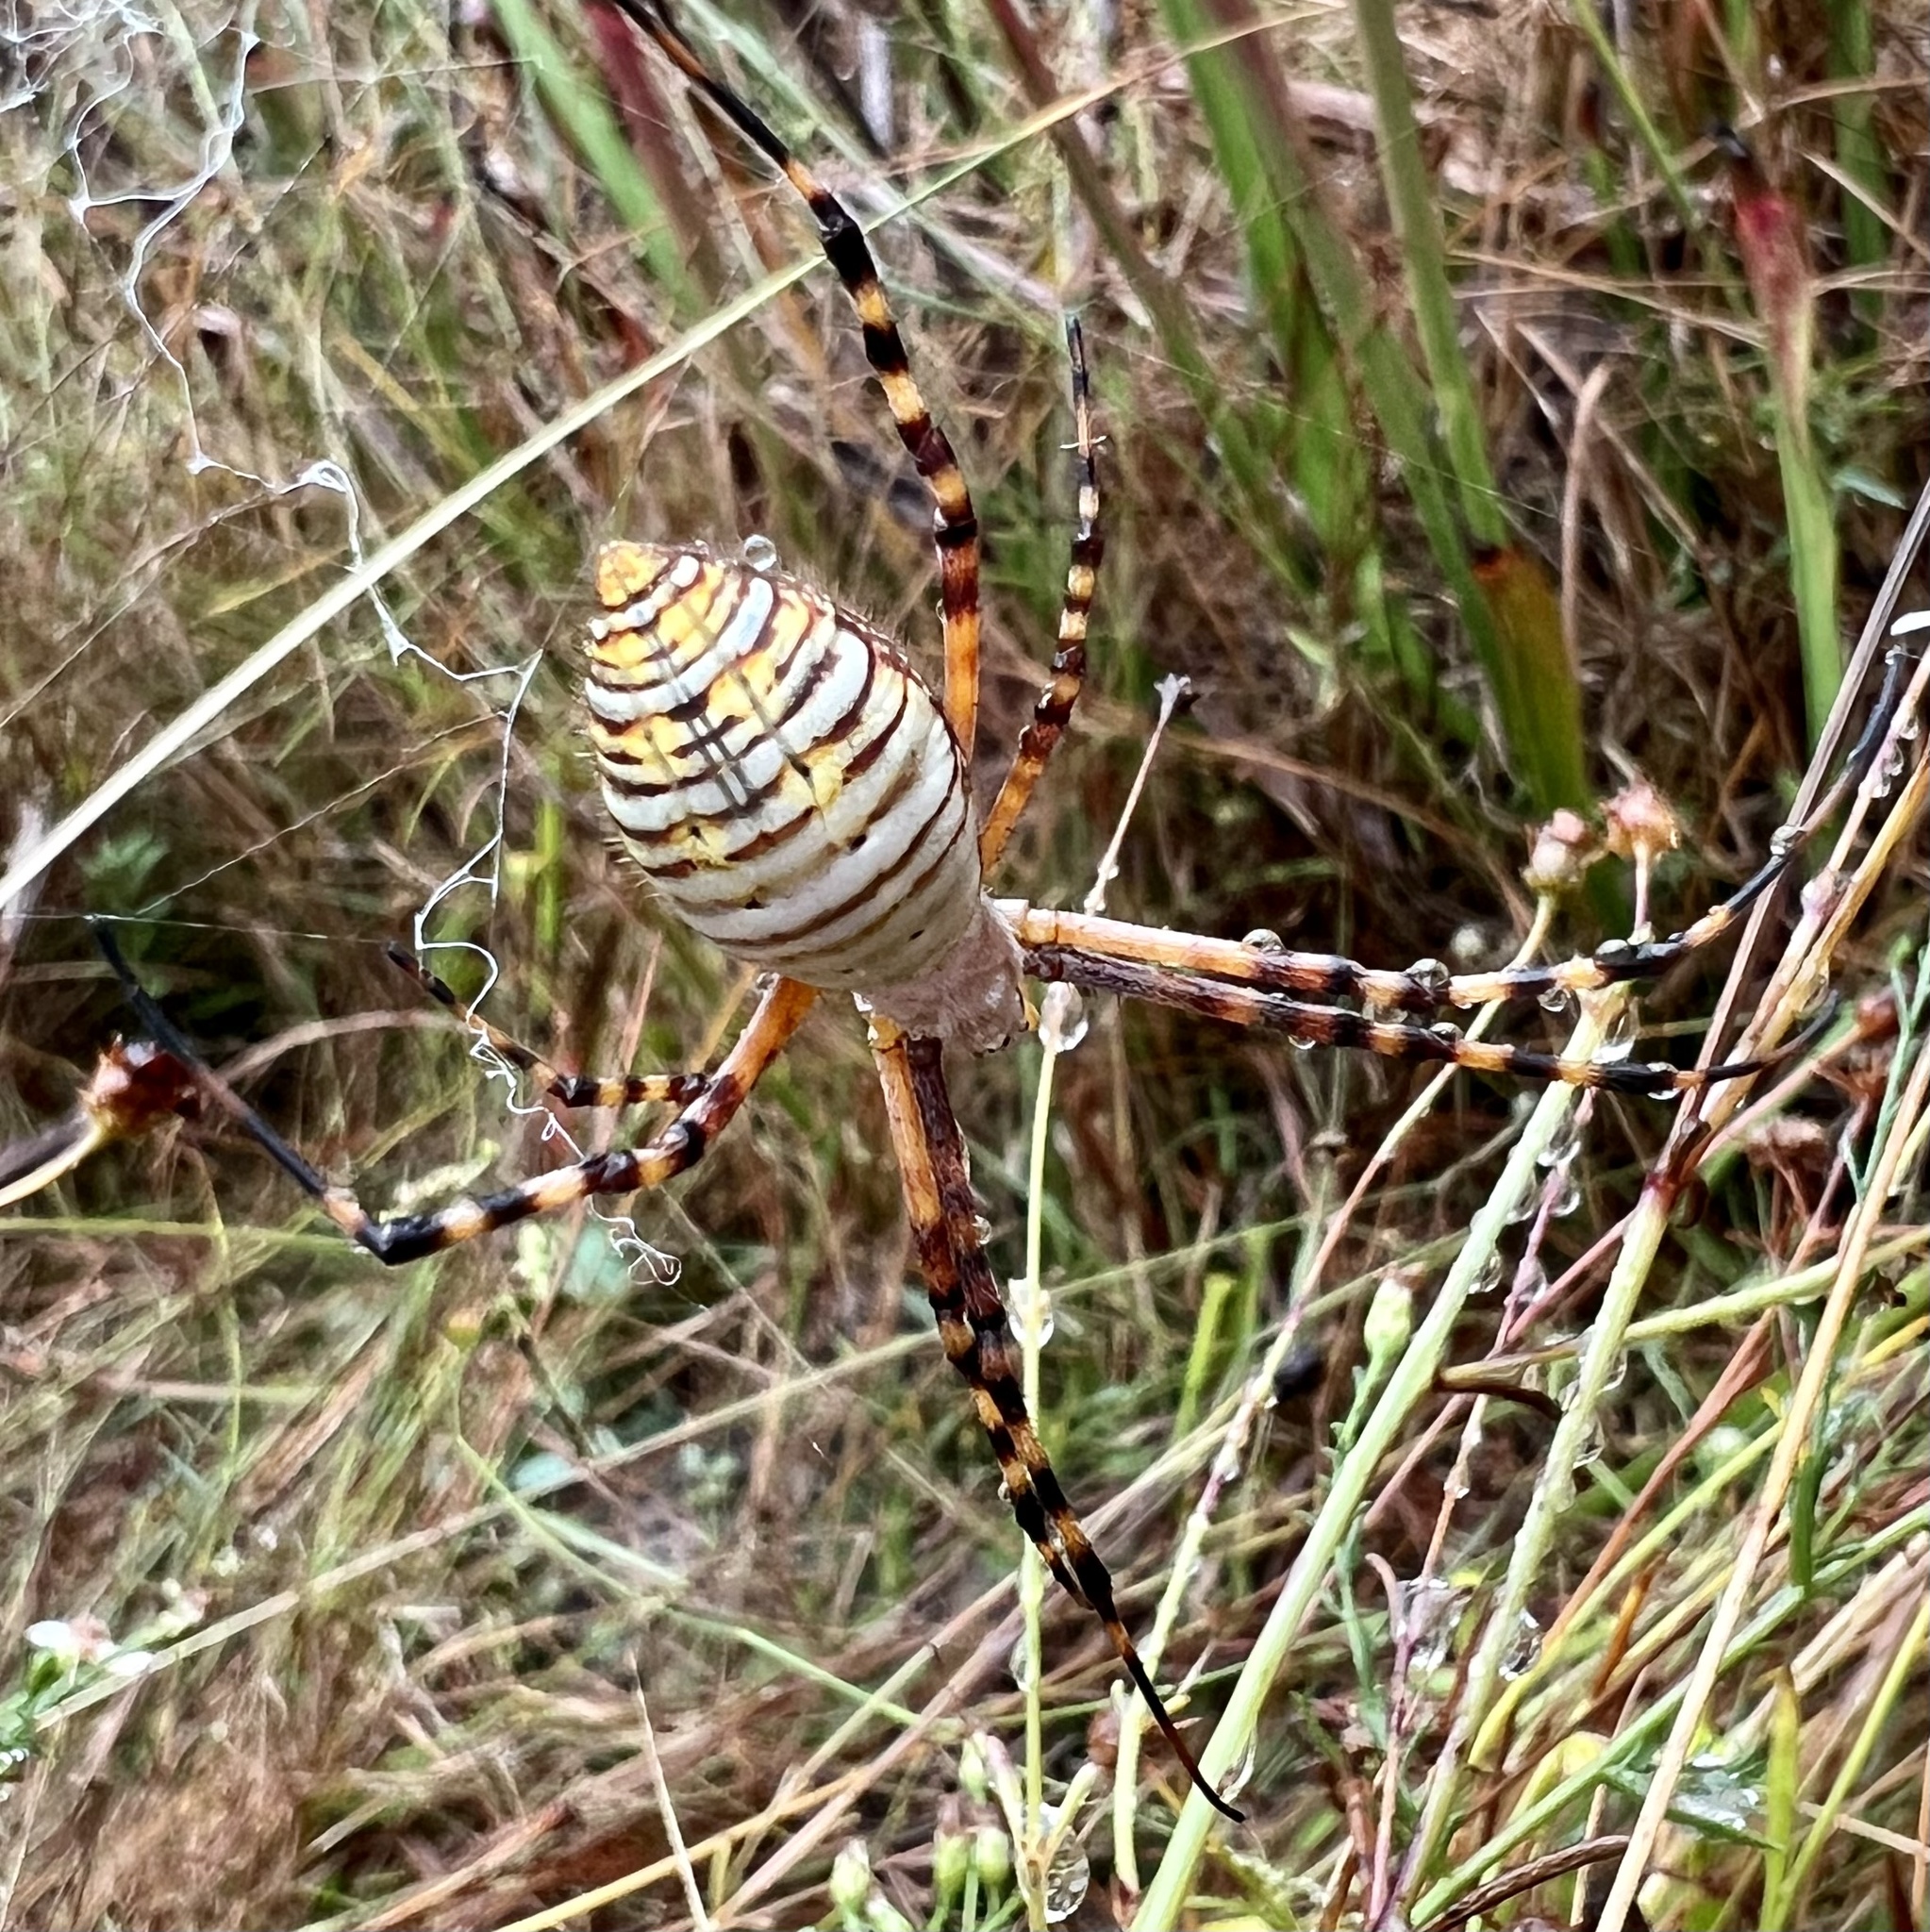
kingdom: Animalia
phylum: Arthropoda
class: Arachnida
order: Araneae
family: Araneidae
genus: Argiope
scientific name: Argiope trifasciata
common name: Banded garden spider
